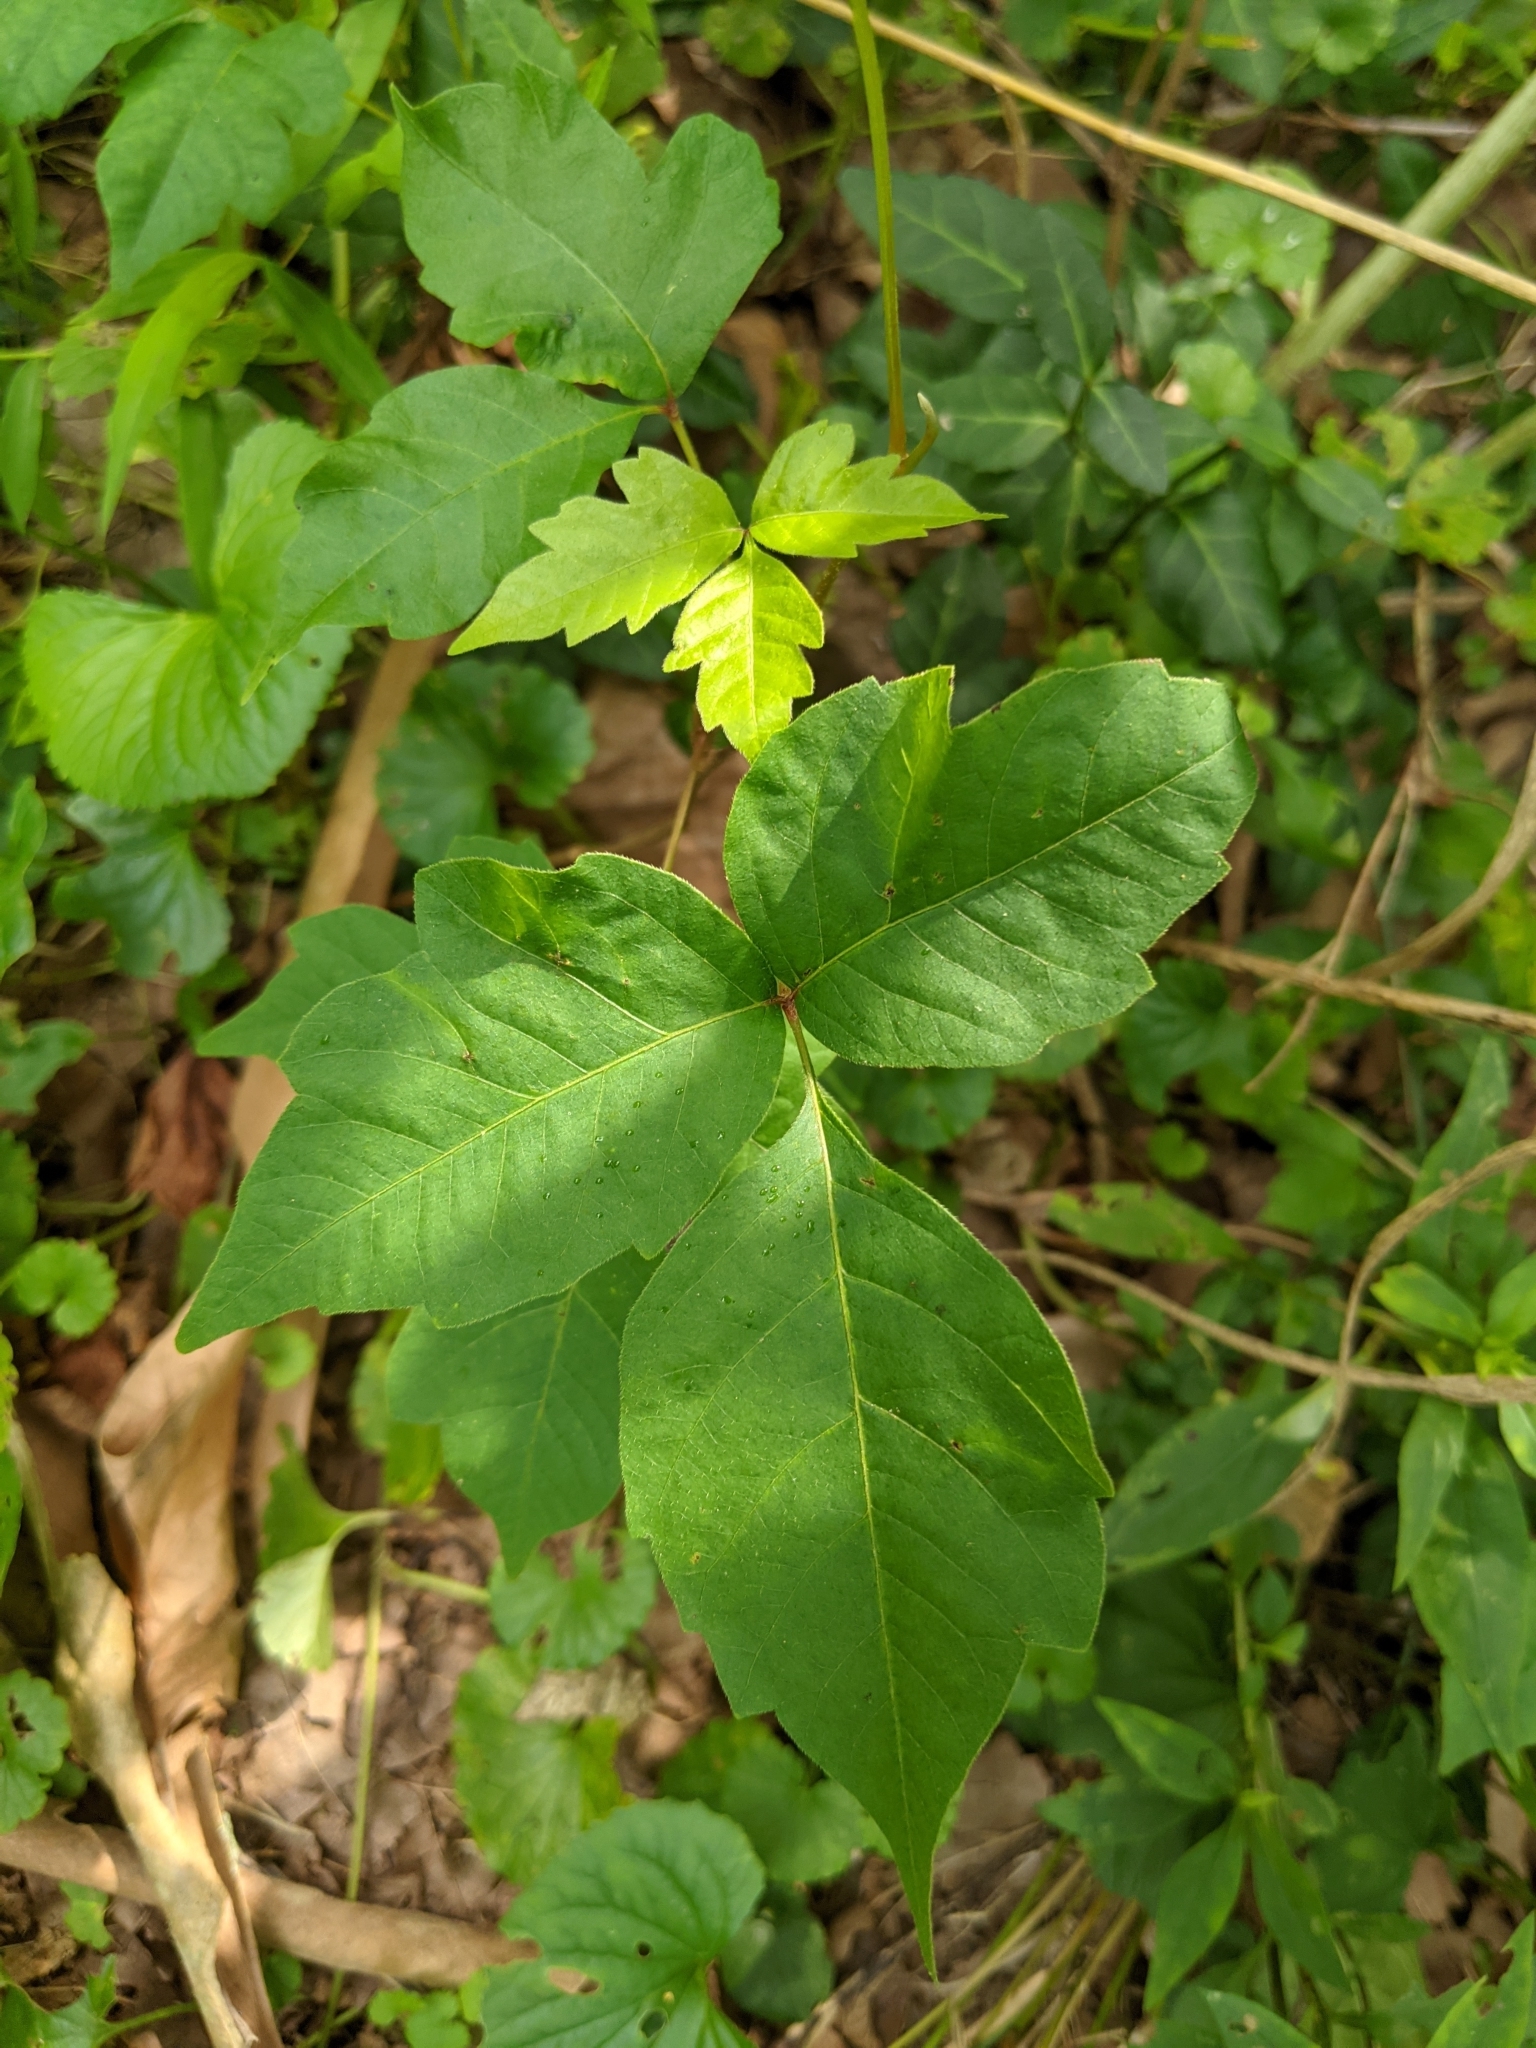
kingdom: Plantae
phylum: Tracheophyta
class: Magnoliopsida
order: Sapindales
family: Anacardiaceae
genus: Toxicodendron
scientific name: Toxicodendron radicans
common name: Poison ivy
